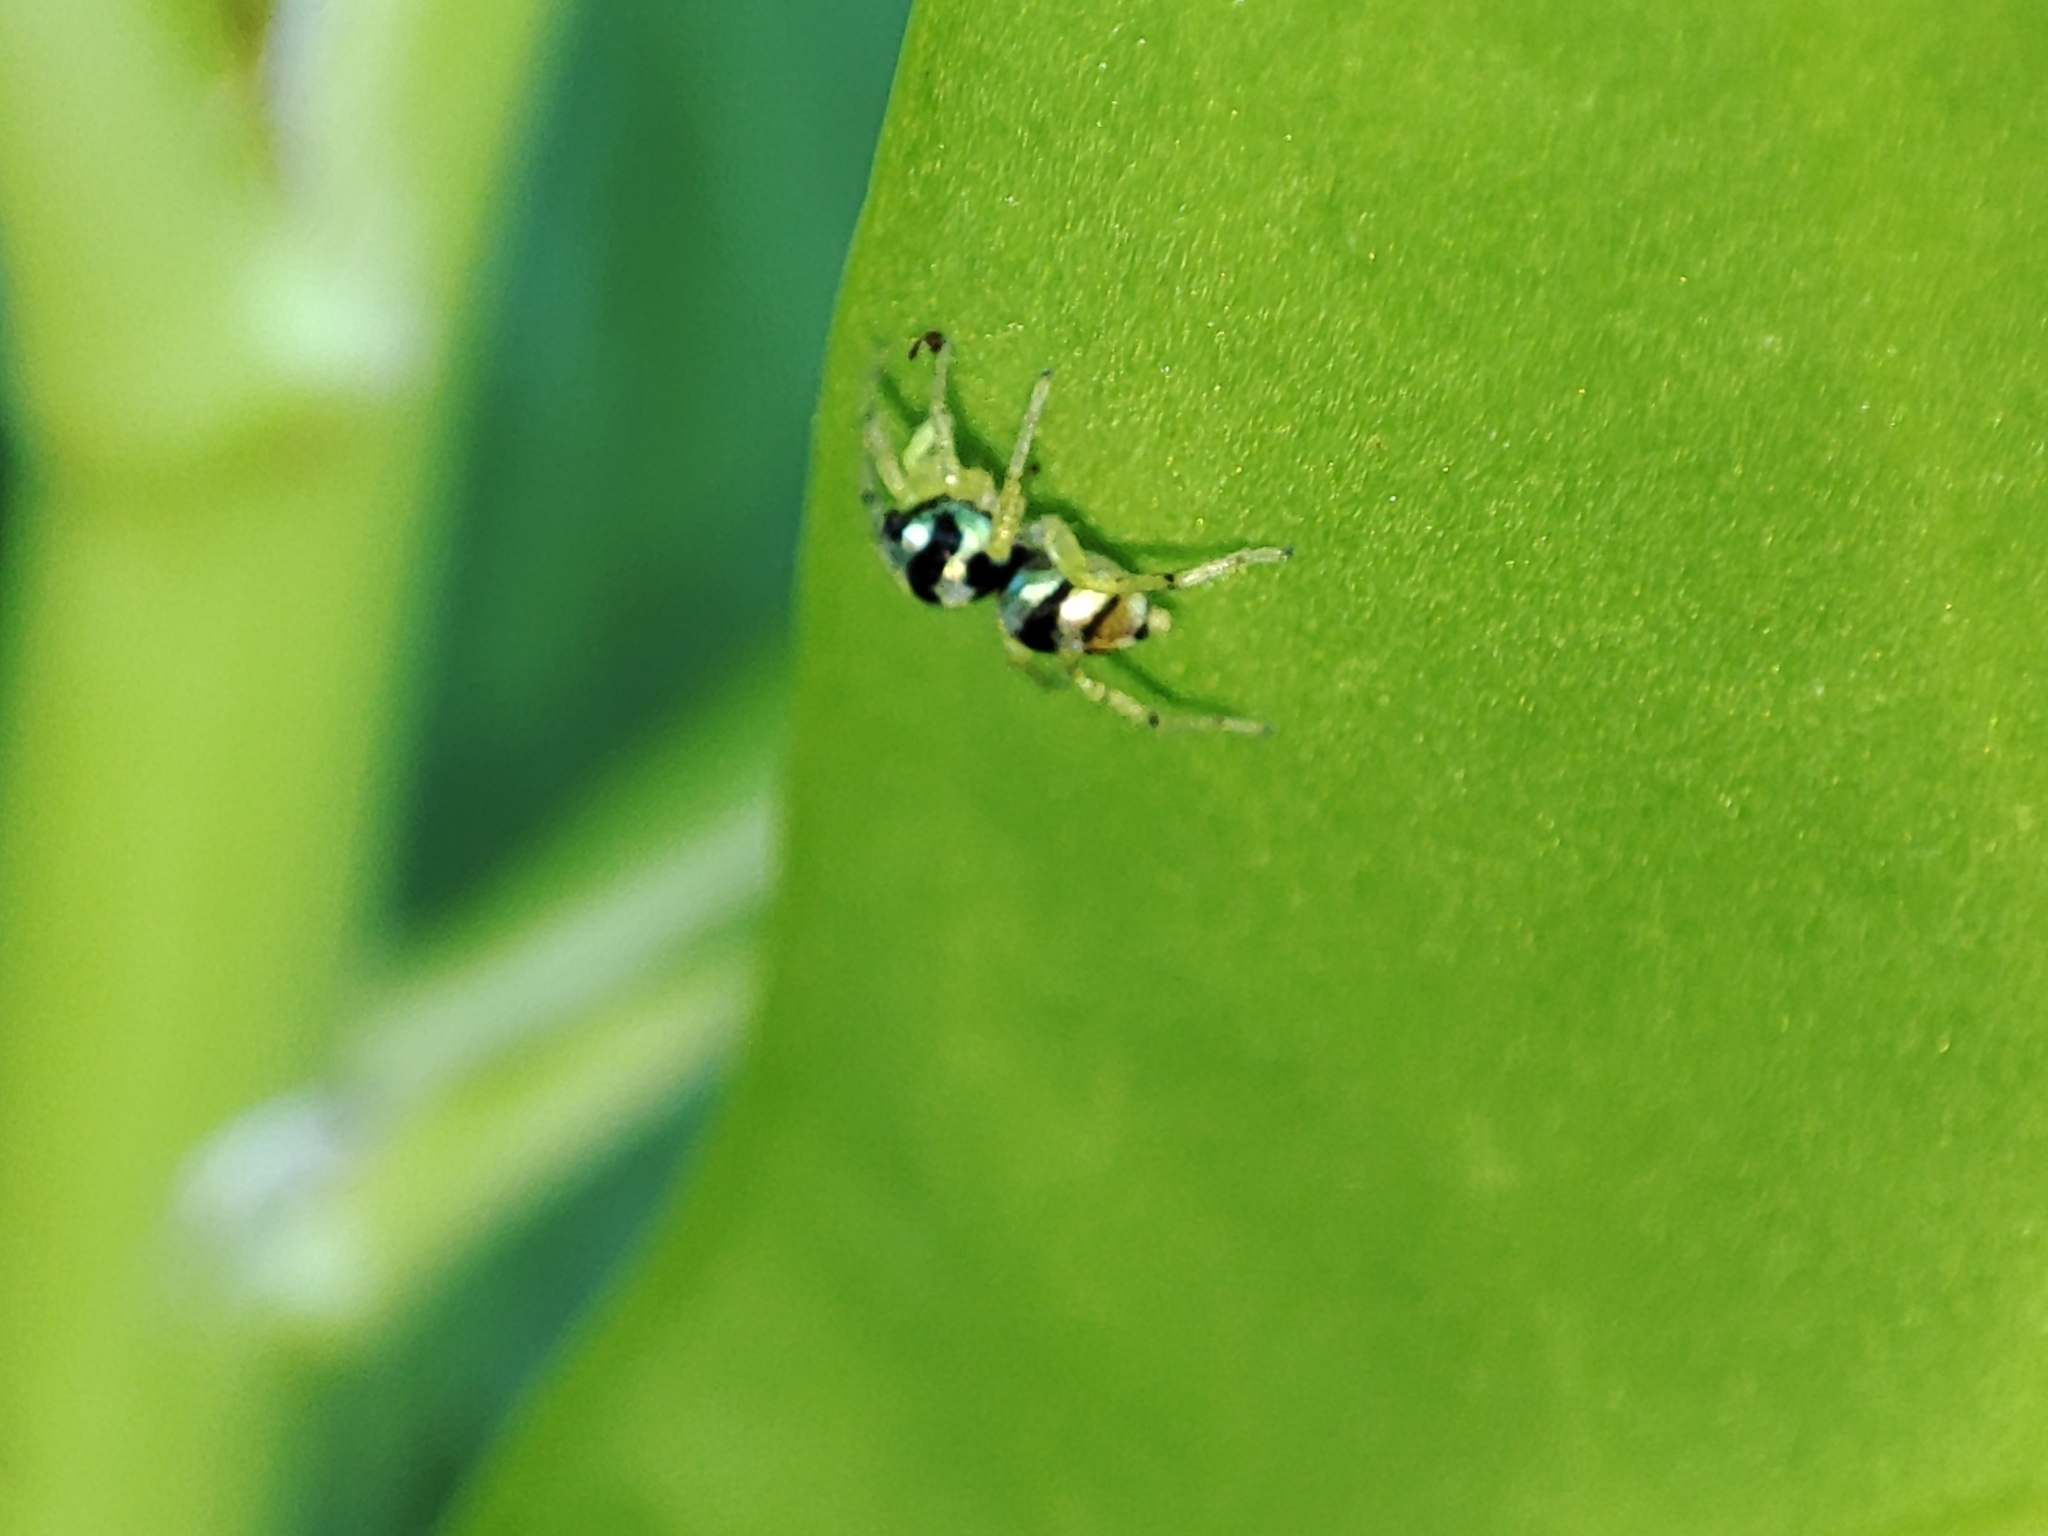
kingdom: Animalia
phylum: Arthropoda
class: Arachnida
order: Araneae
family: Salticidae
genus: Phintella
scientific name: Phintella vittata
